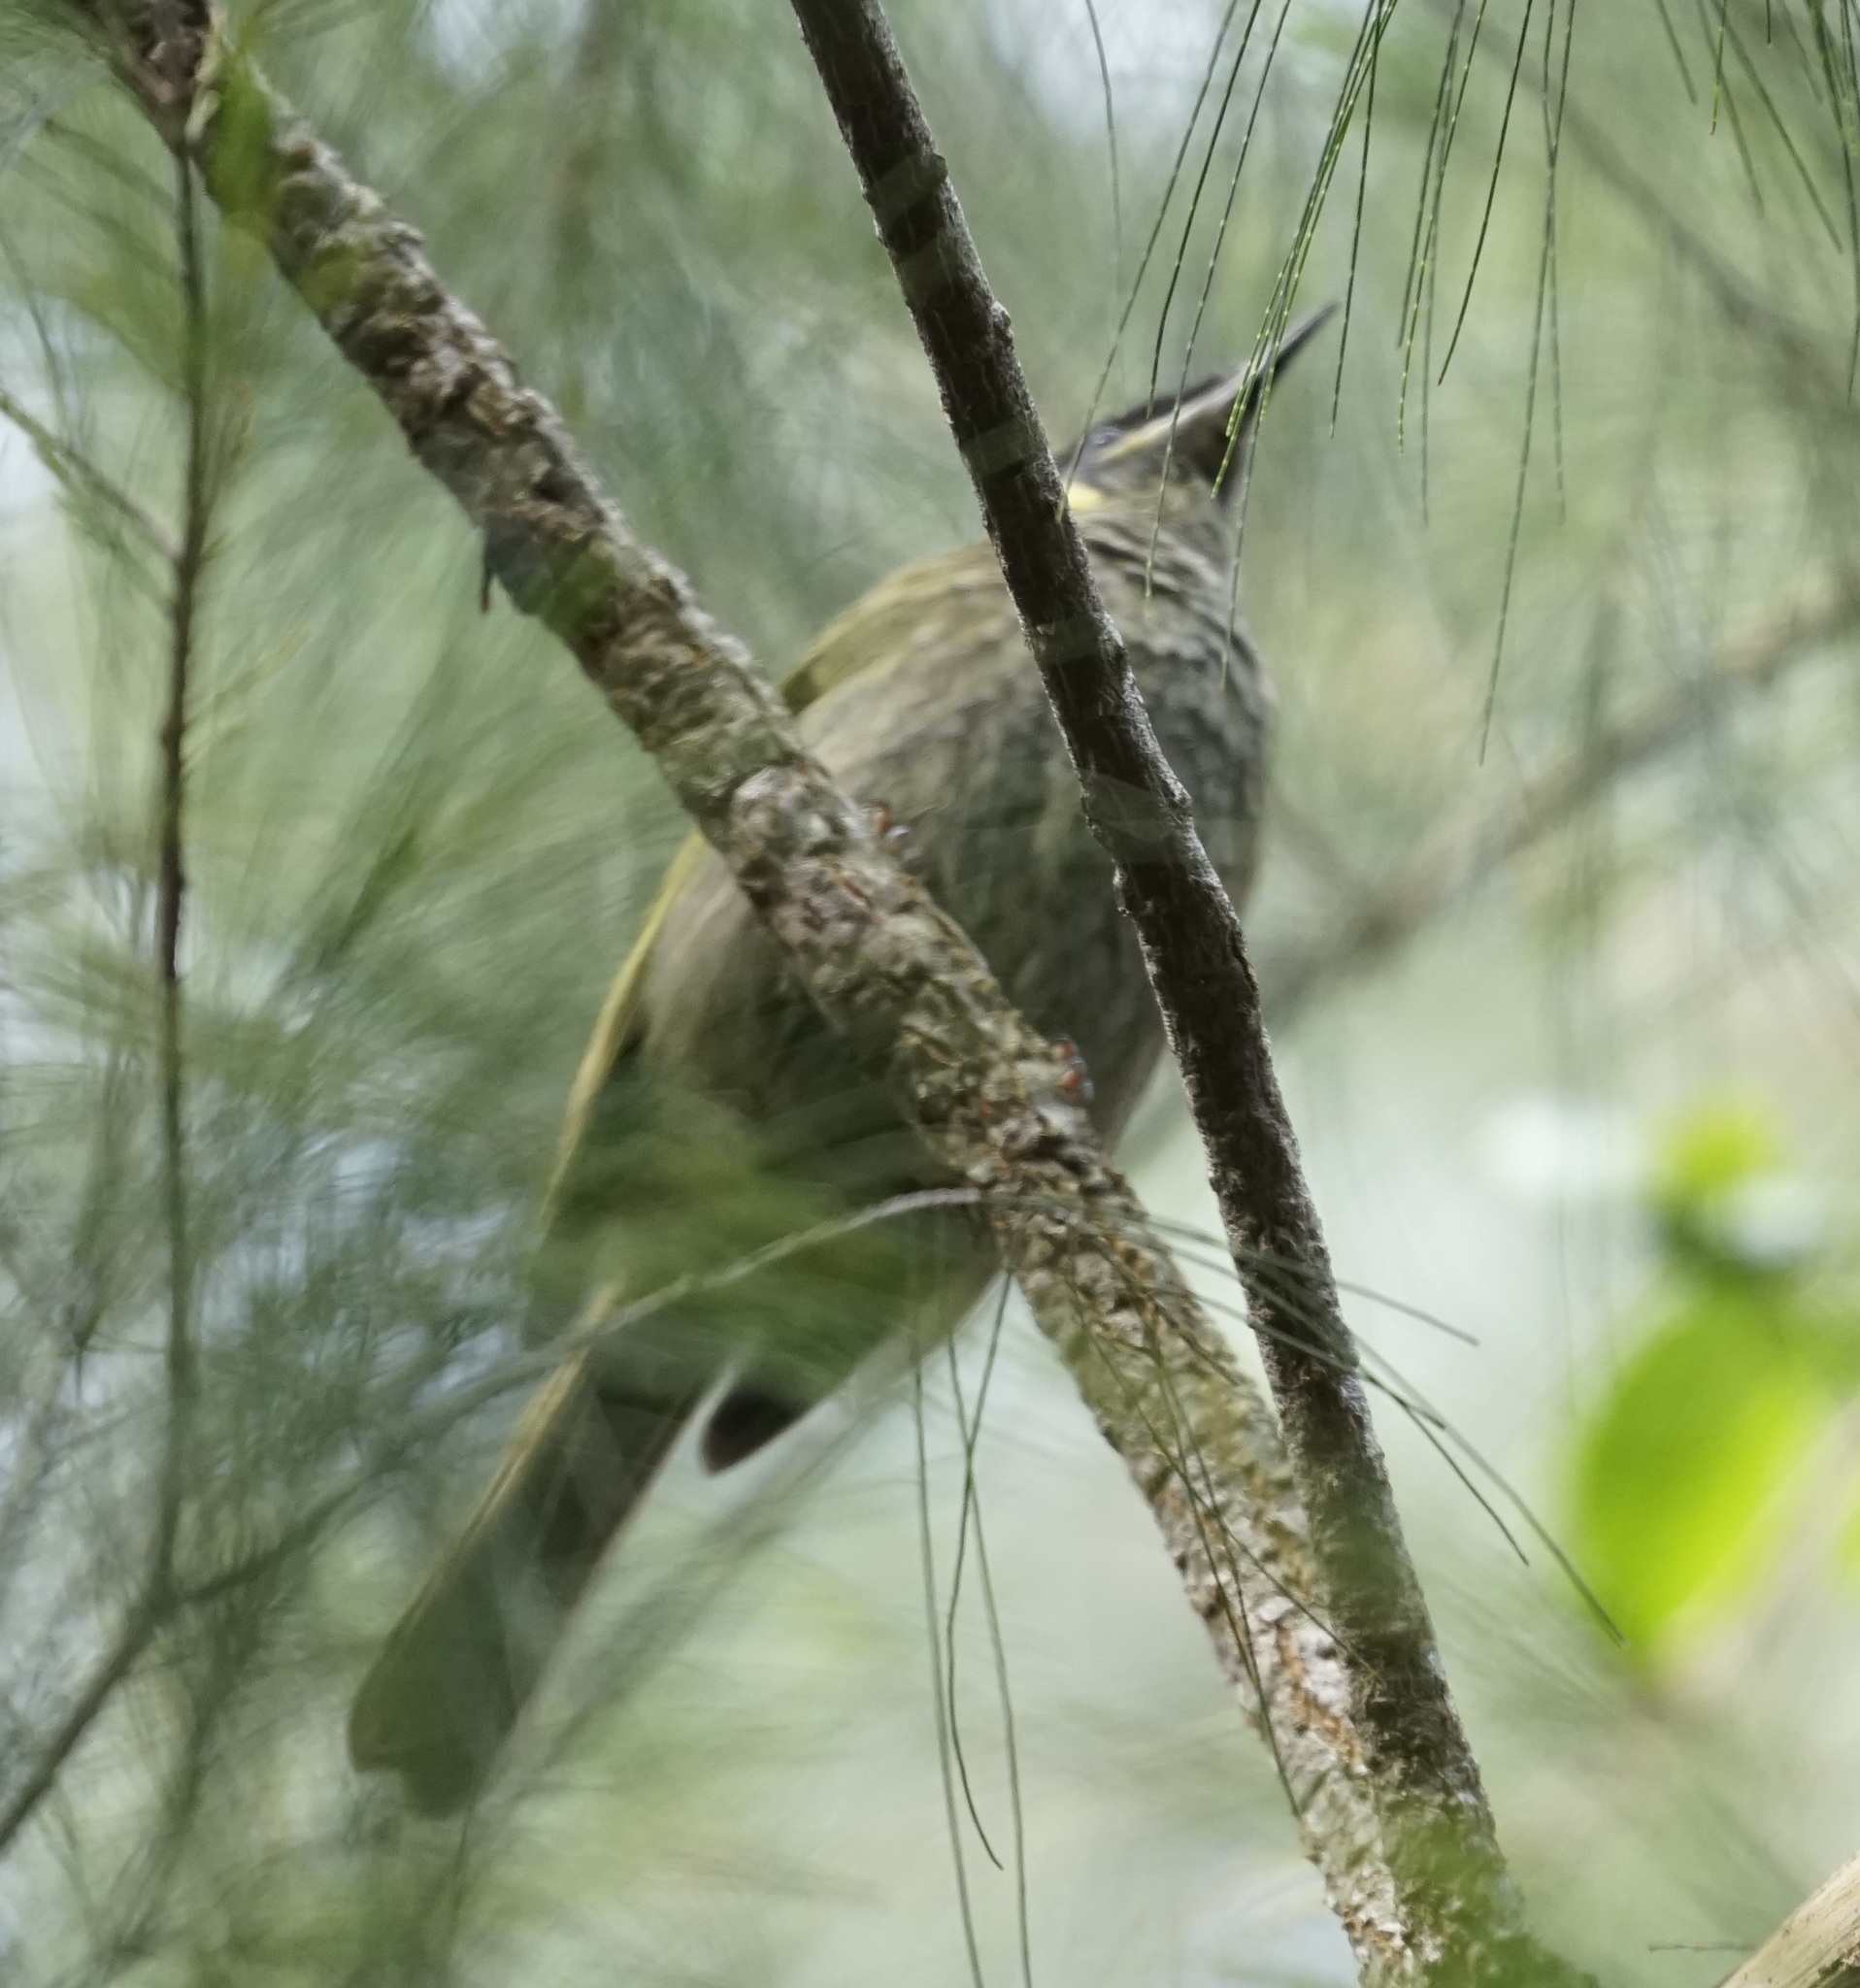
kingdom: Animalia
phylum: Chordata
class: Aves
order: Passeriformes
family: Meliphagidae
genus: Meliphaga
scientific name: Meliphaga lewinii
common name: Lewin's honeyeater
